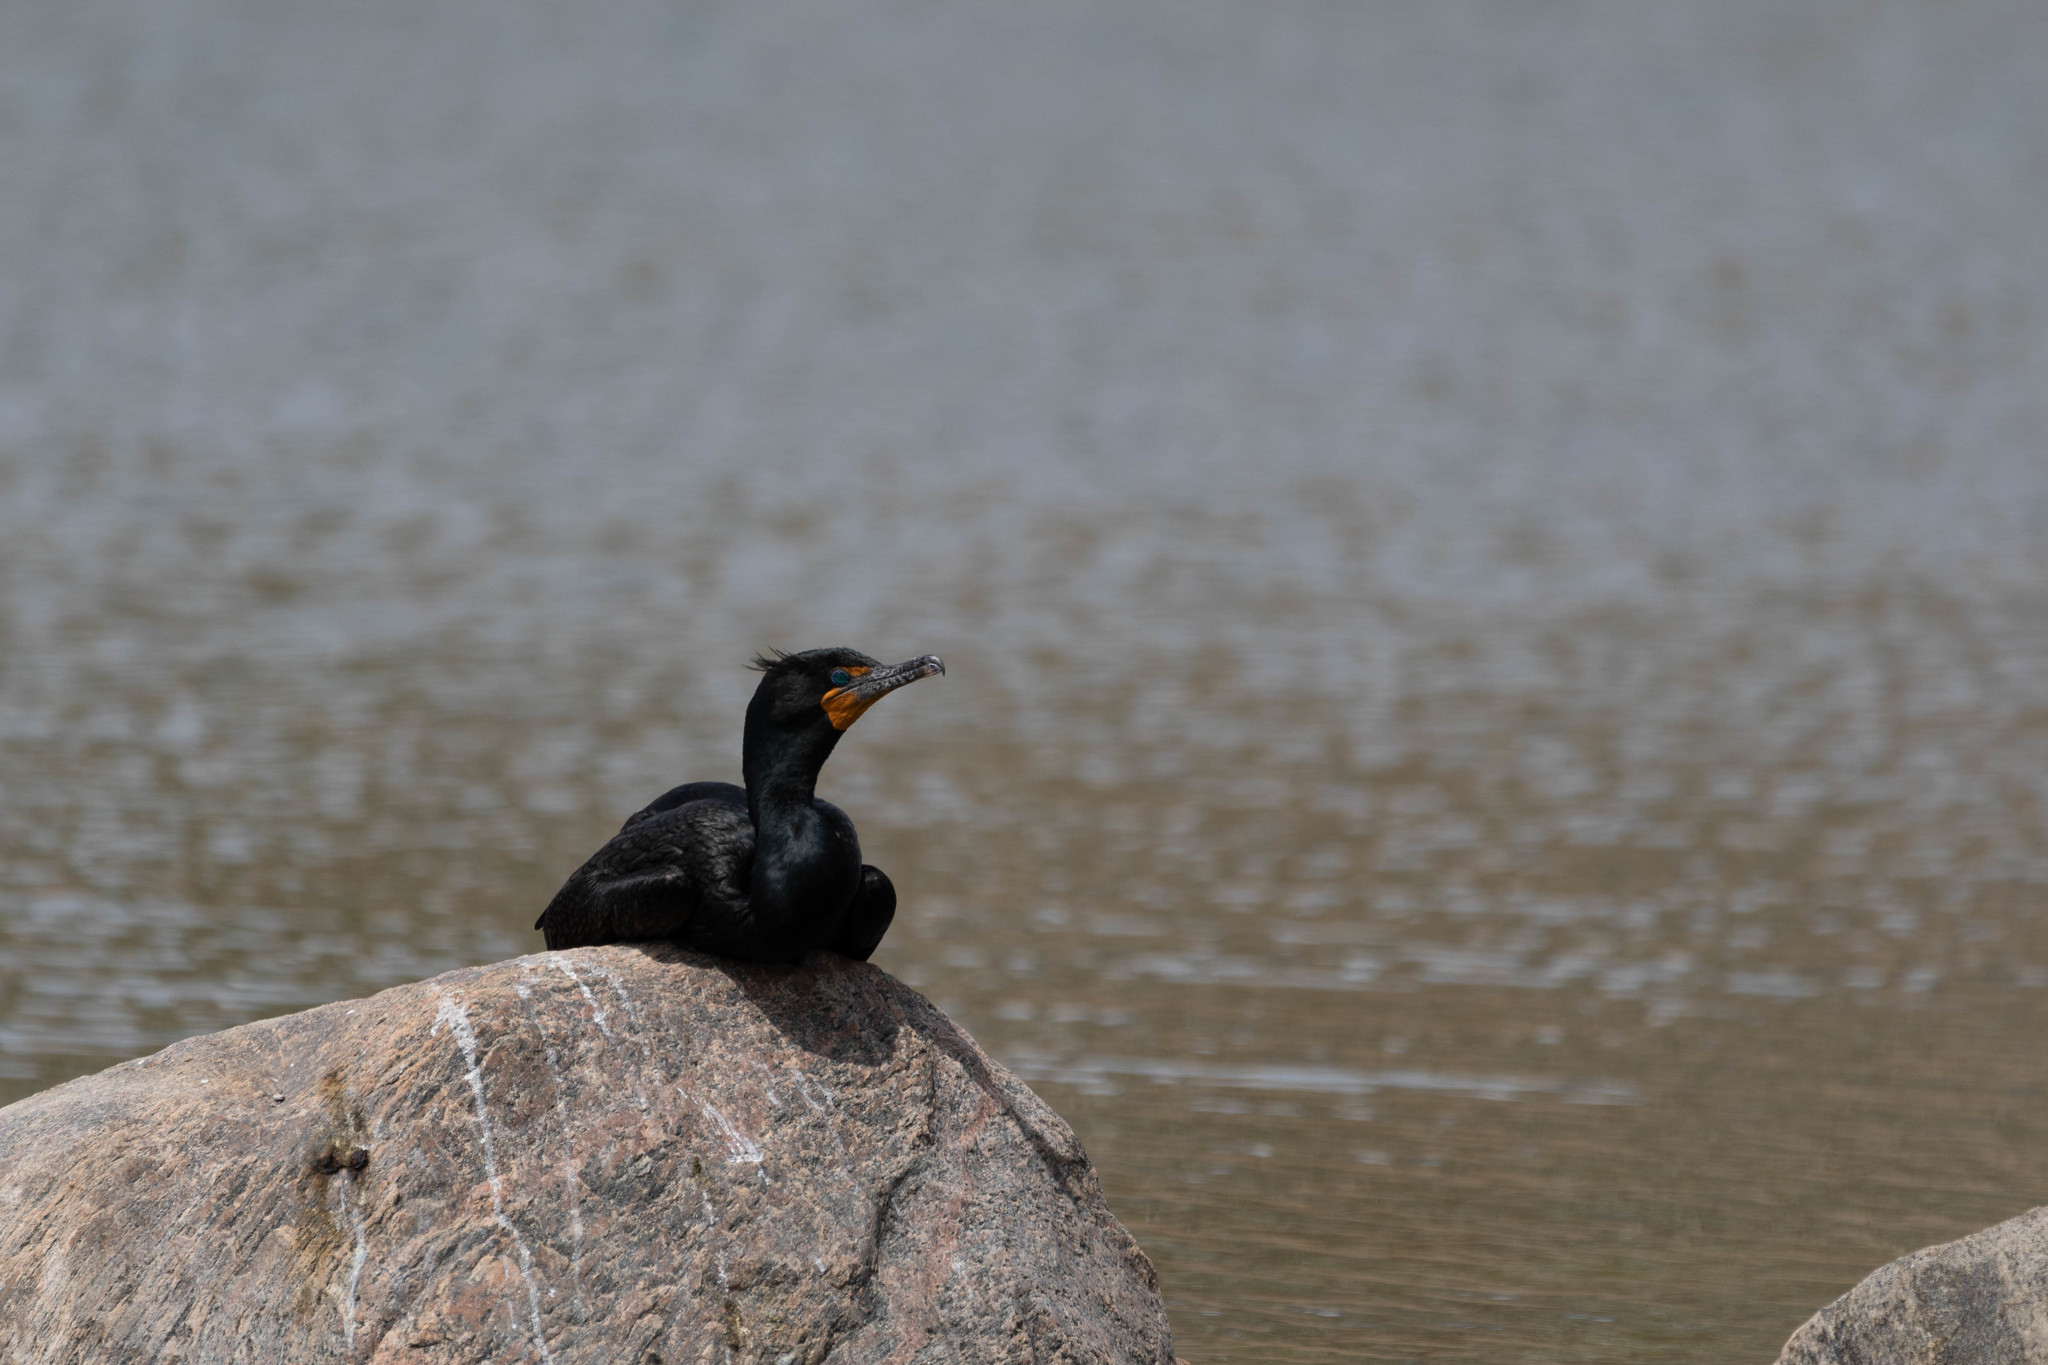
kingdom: Animalia
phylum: Chordata
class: Aves
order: Suliformes
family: Phalacrocoracidae
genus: Phalacrocorax
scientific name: Phalacrocorax auritus
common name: Double-crested cormorant
